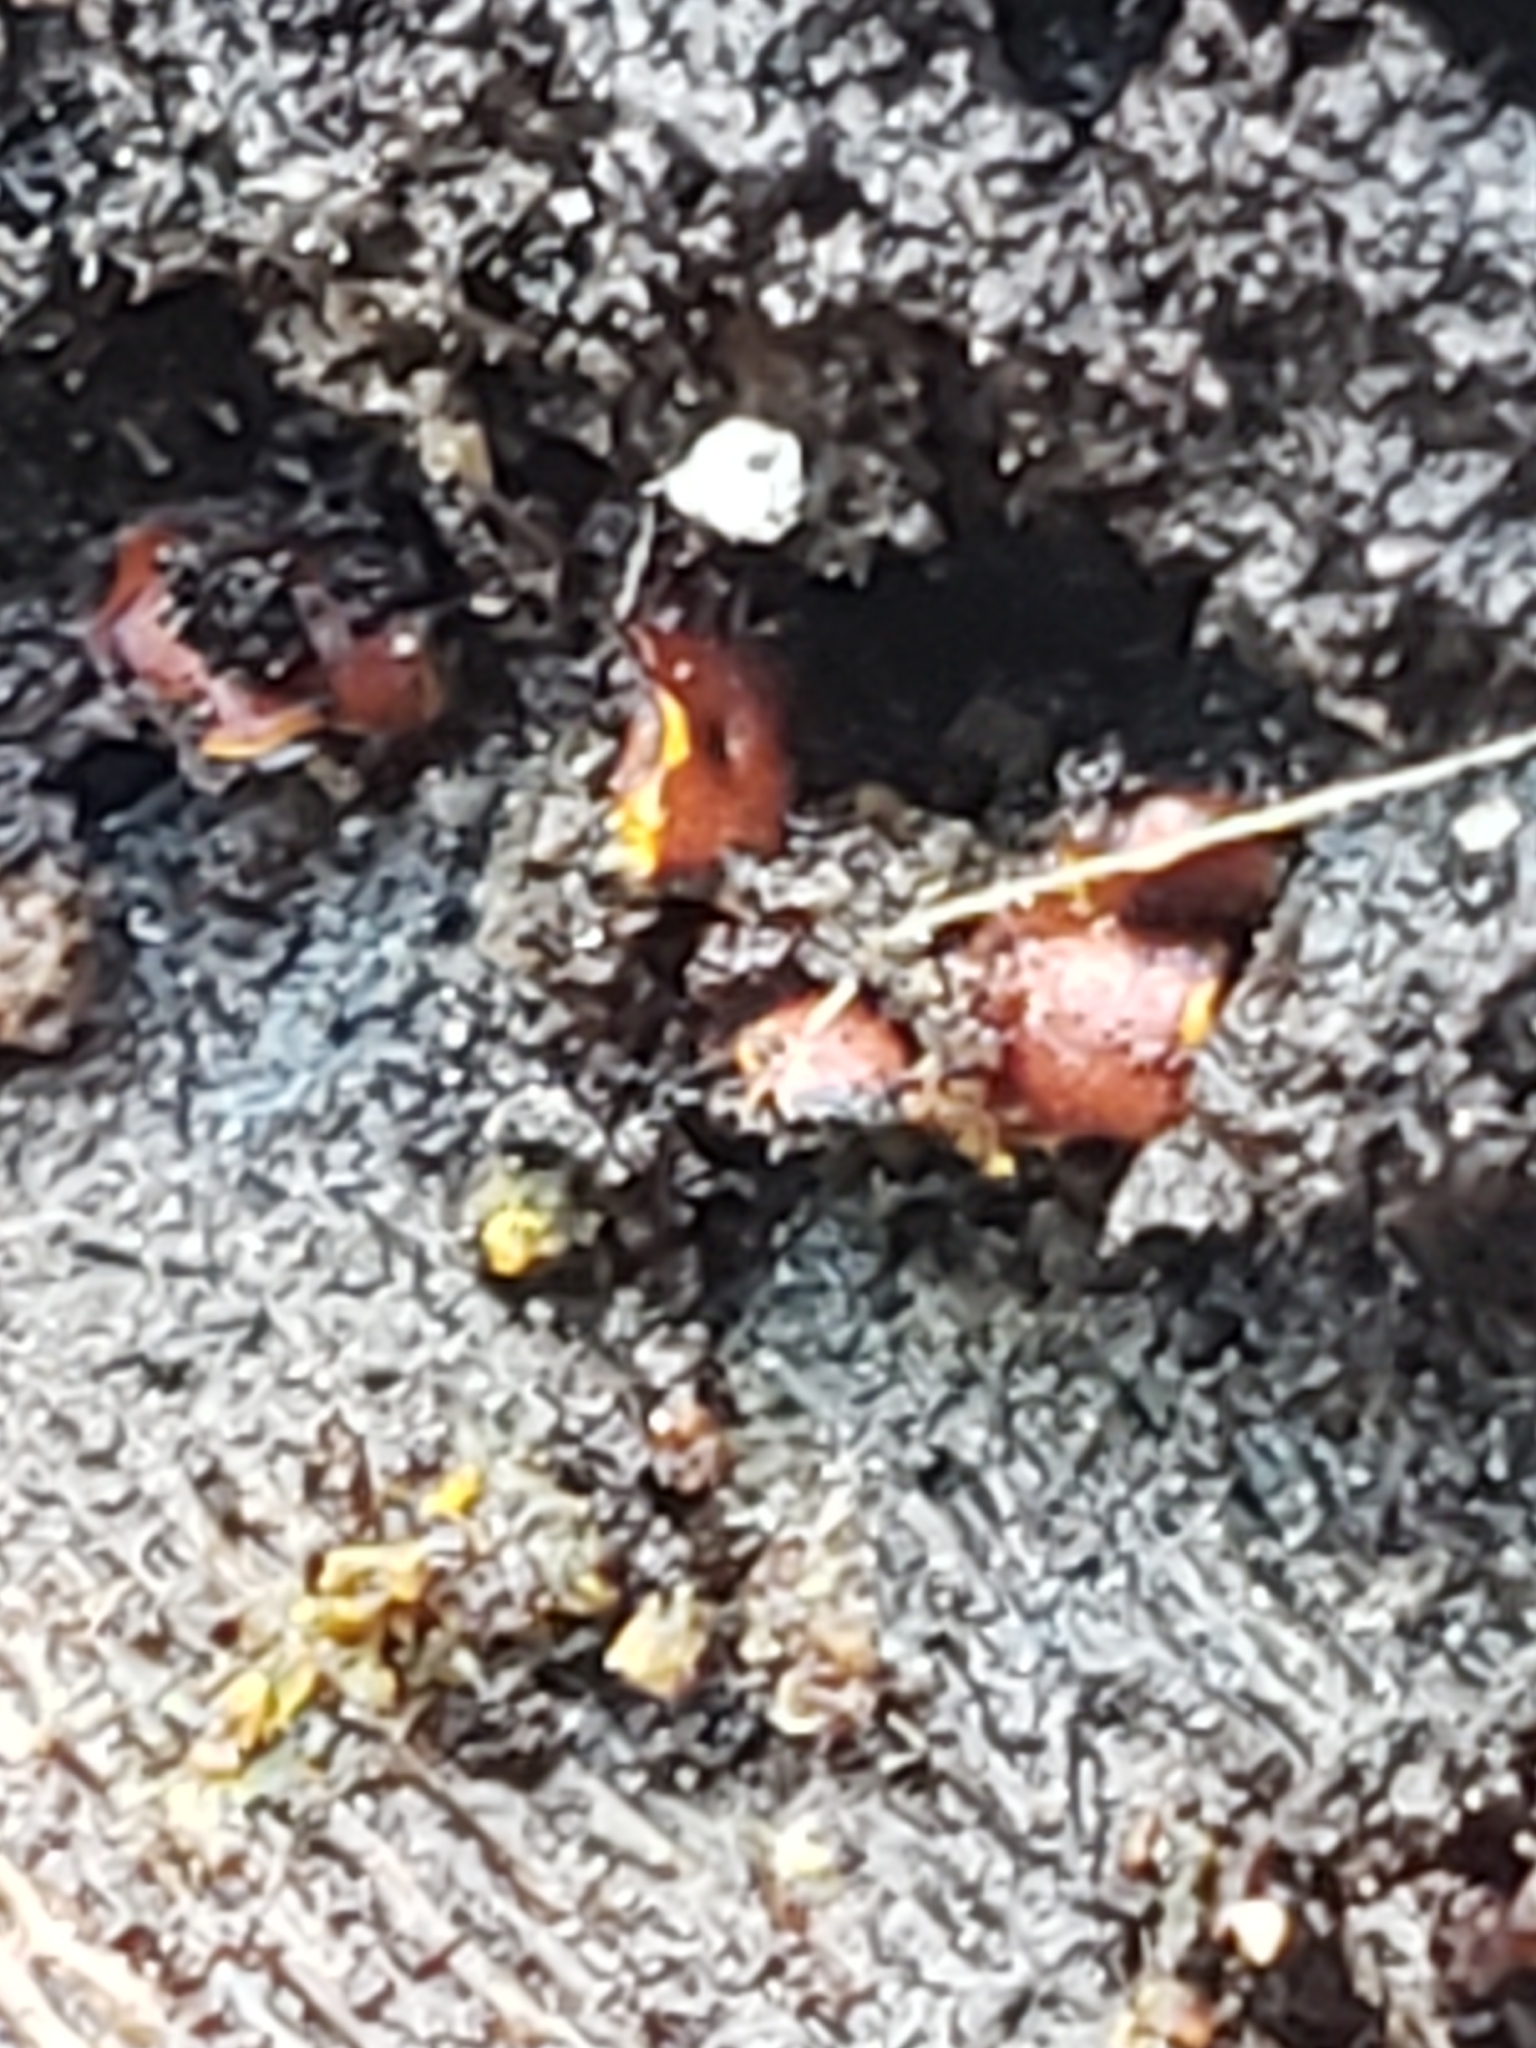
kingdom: Protozoa
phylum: Mycetozoa
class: Myxomycetes
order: Trichiales
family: Trichiaceae
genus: Perichaena
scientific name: Perichaena depressa
